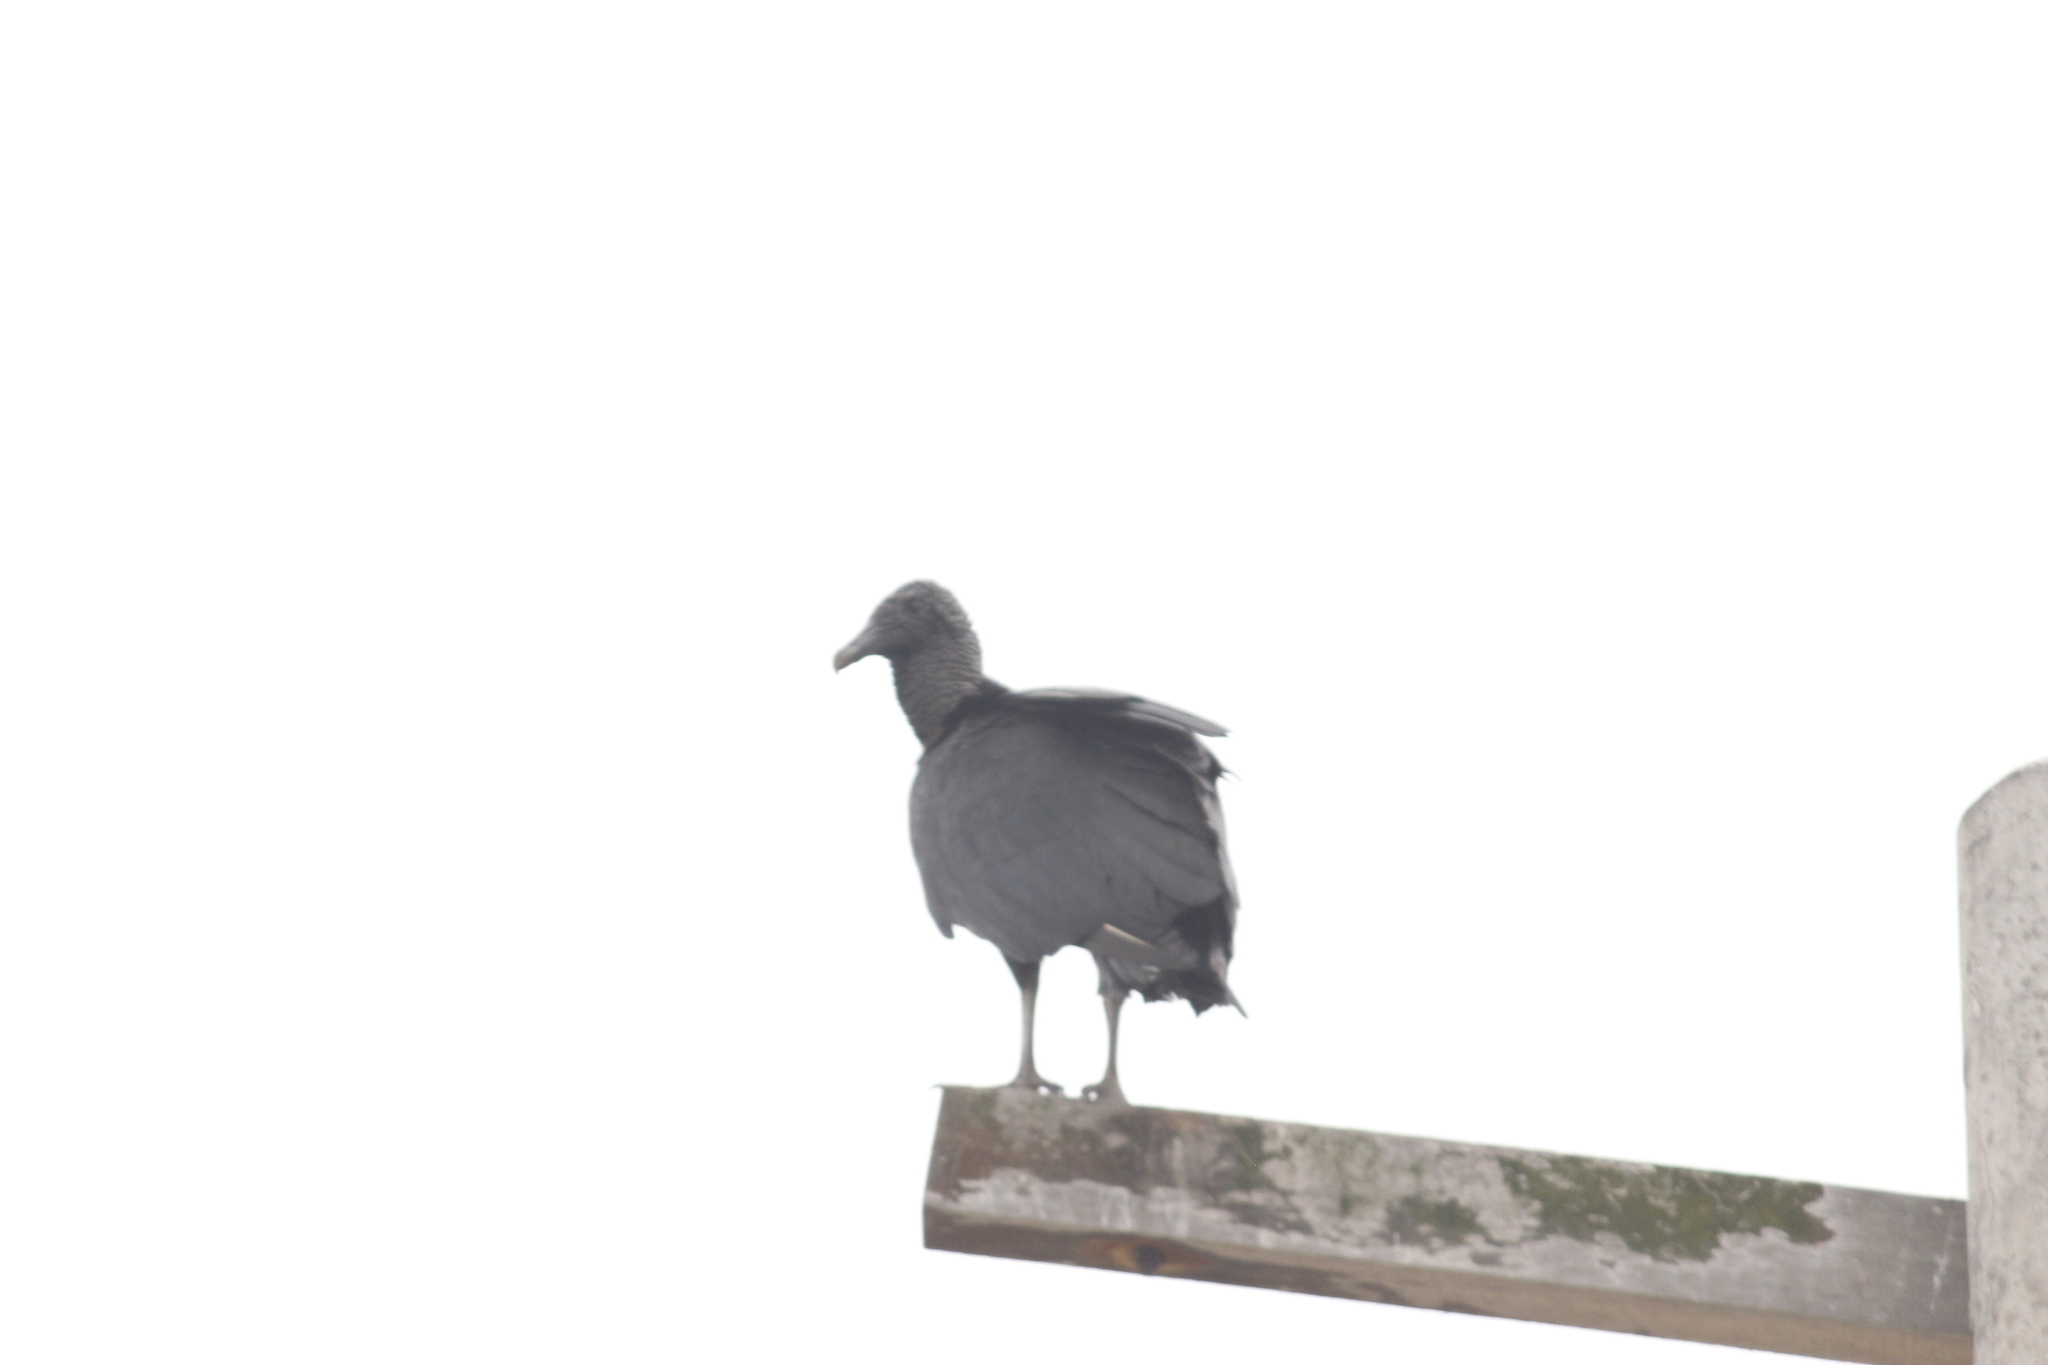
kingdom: Animalia
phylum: Chordata
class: Aves
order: Accipitriformes
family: Cathartidae
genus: Coragyps
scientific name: Coragyps atratus
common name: Black vulture
